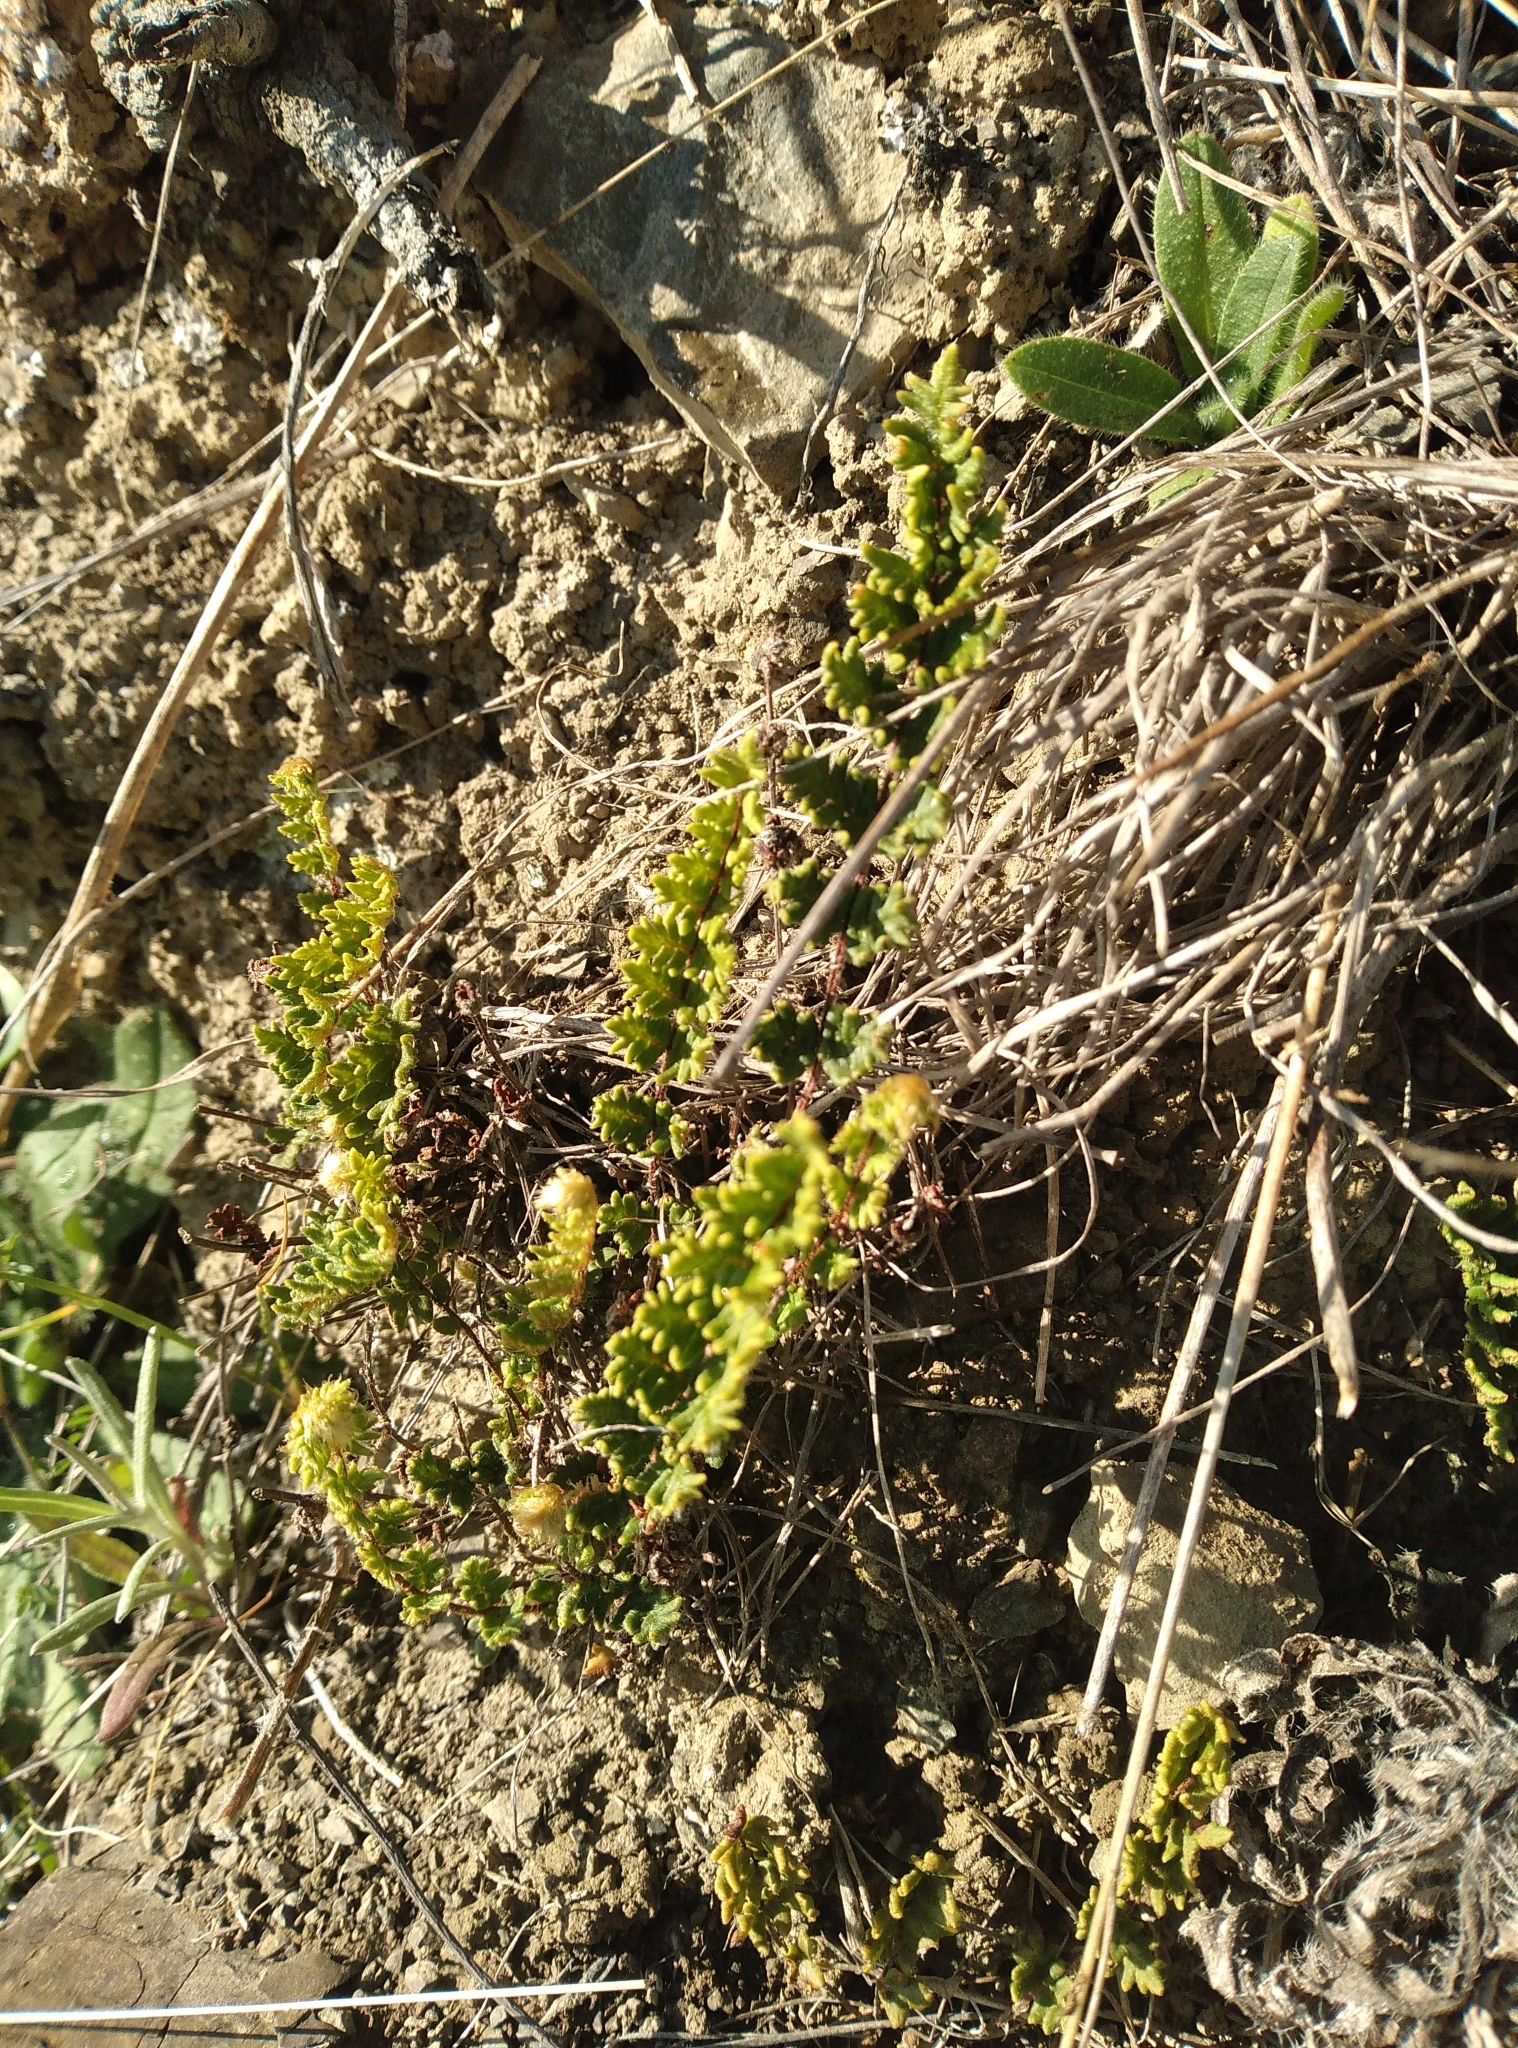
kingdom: Plantae
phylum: Tracheophyta
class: Polypodiopsida
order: Polypodiales
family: Pteridaceae
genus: Cheilanthes
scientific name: Cheilanthes distans
